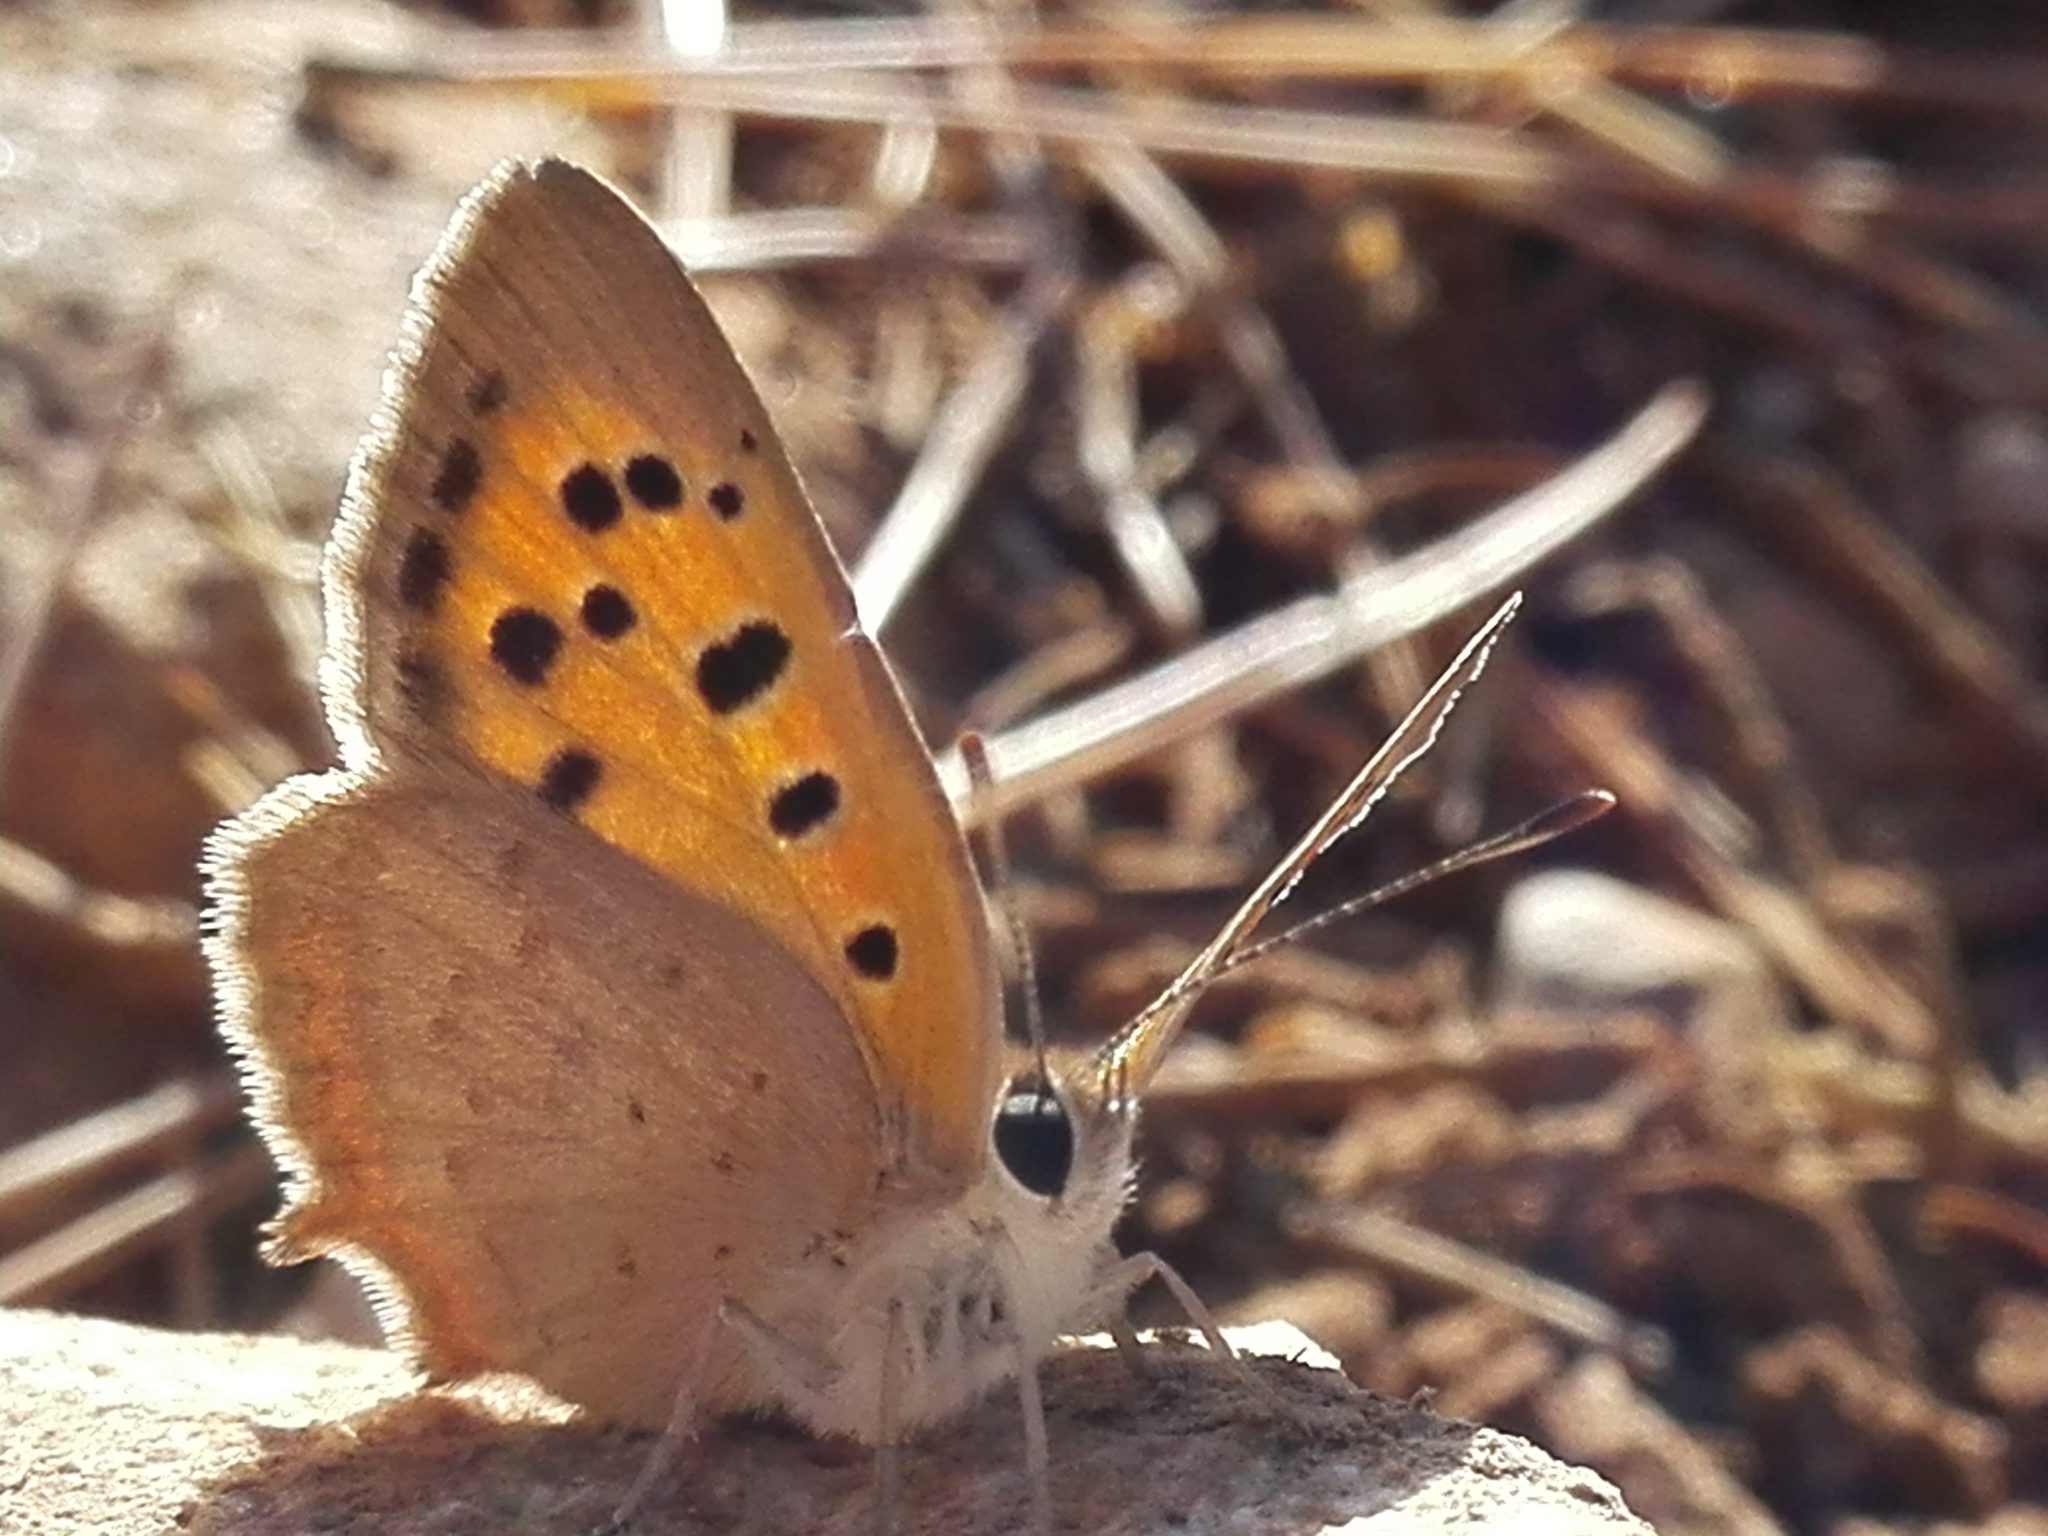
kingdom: Animalia
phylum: Arthropoda
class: Insecta
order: Lepidoptera
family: Lycaenidae
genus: Lycaena
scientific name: Lycaena phlaeas
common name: Small copper
